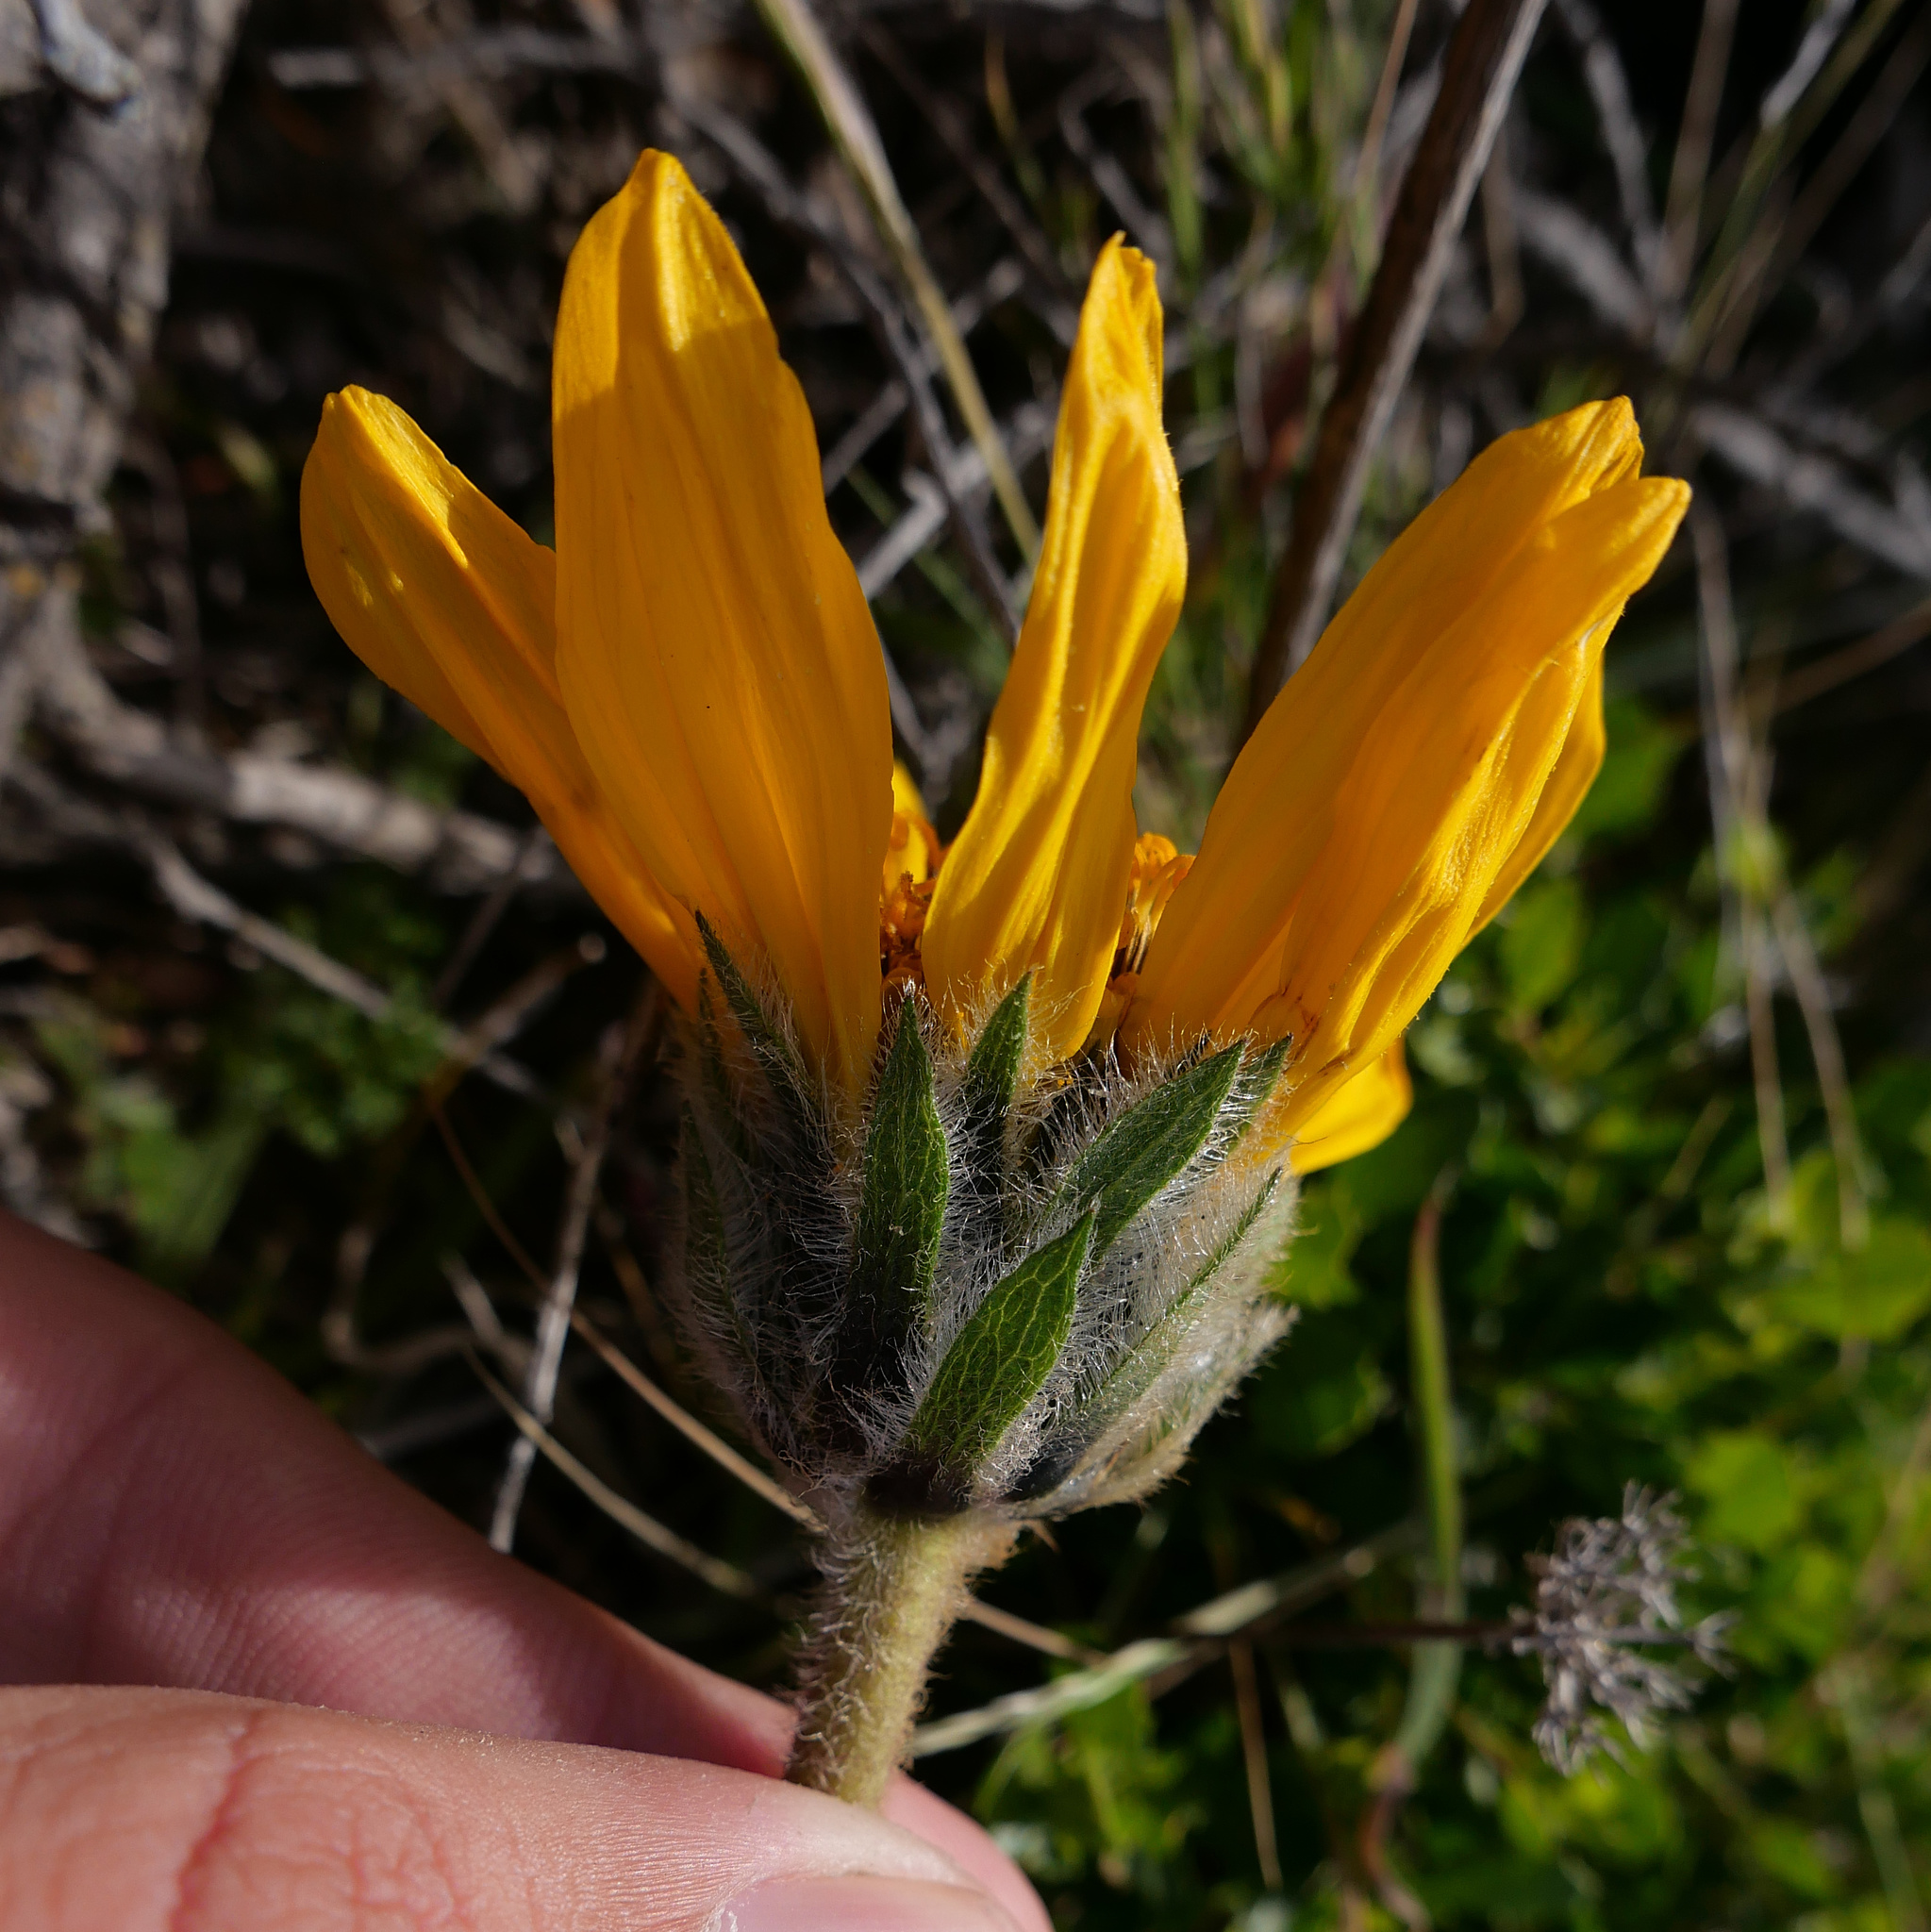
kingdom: Plantae
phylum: Tracheophyta
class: Magnoliopsida
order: Asterales
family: Asteraceae
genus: Wyethia
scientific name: Wyethia angustifolia
